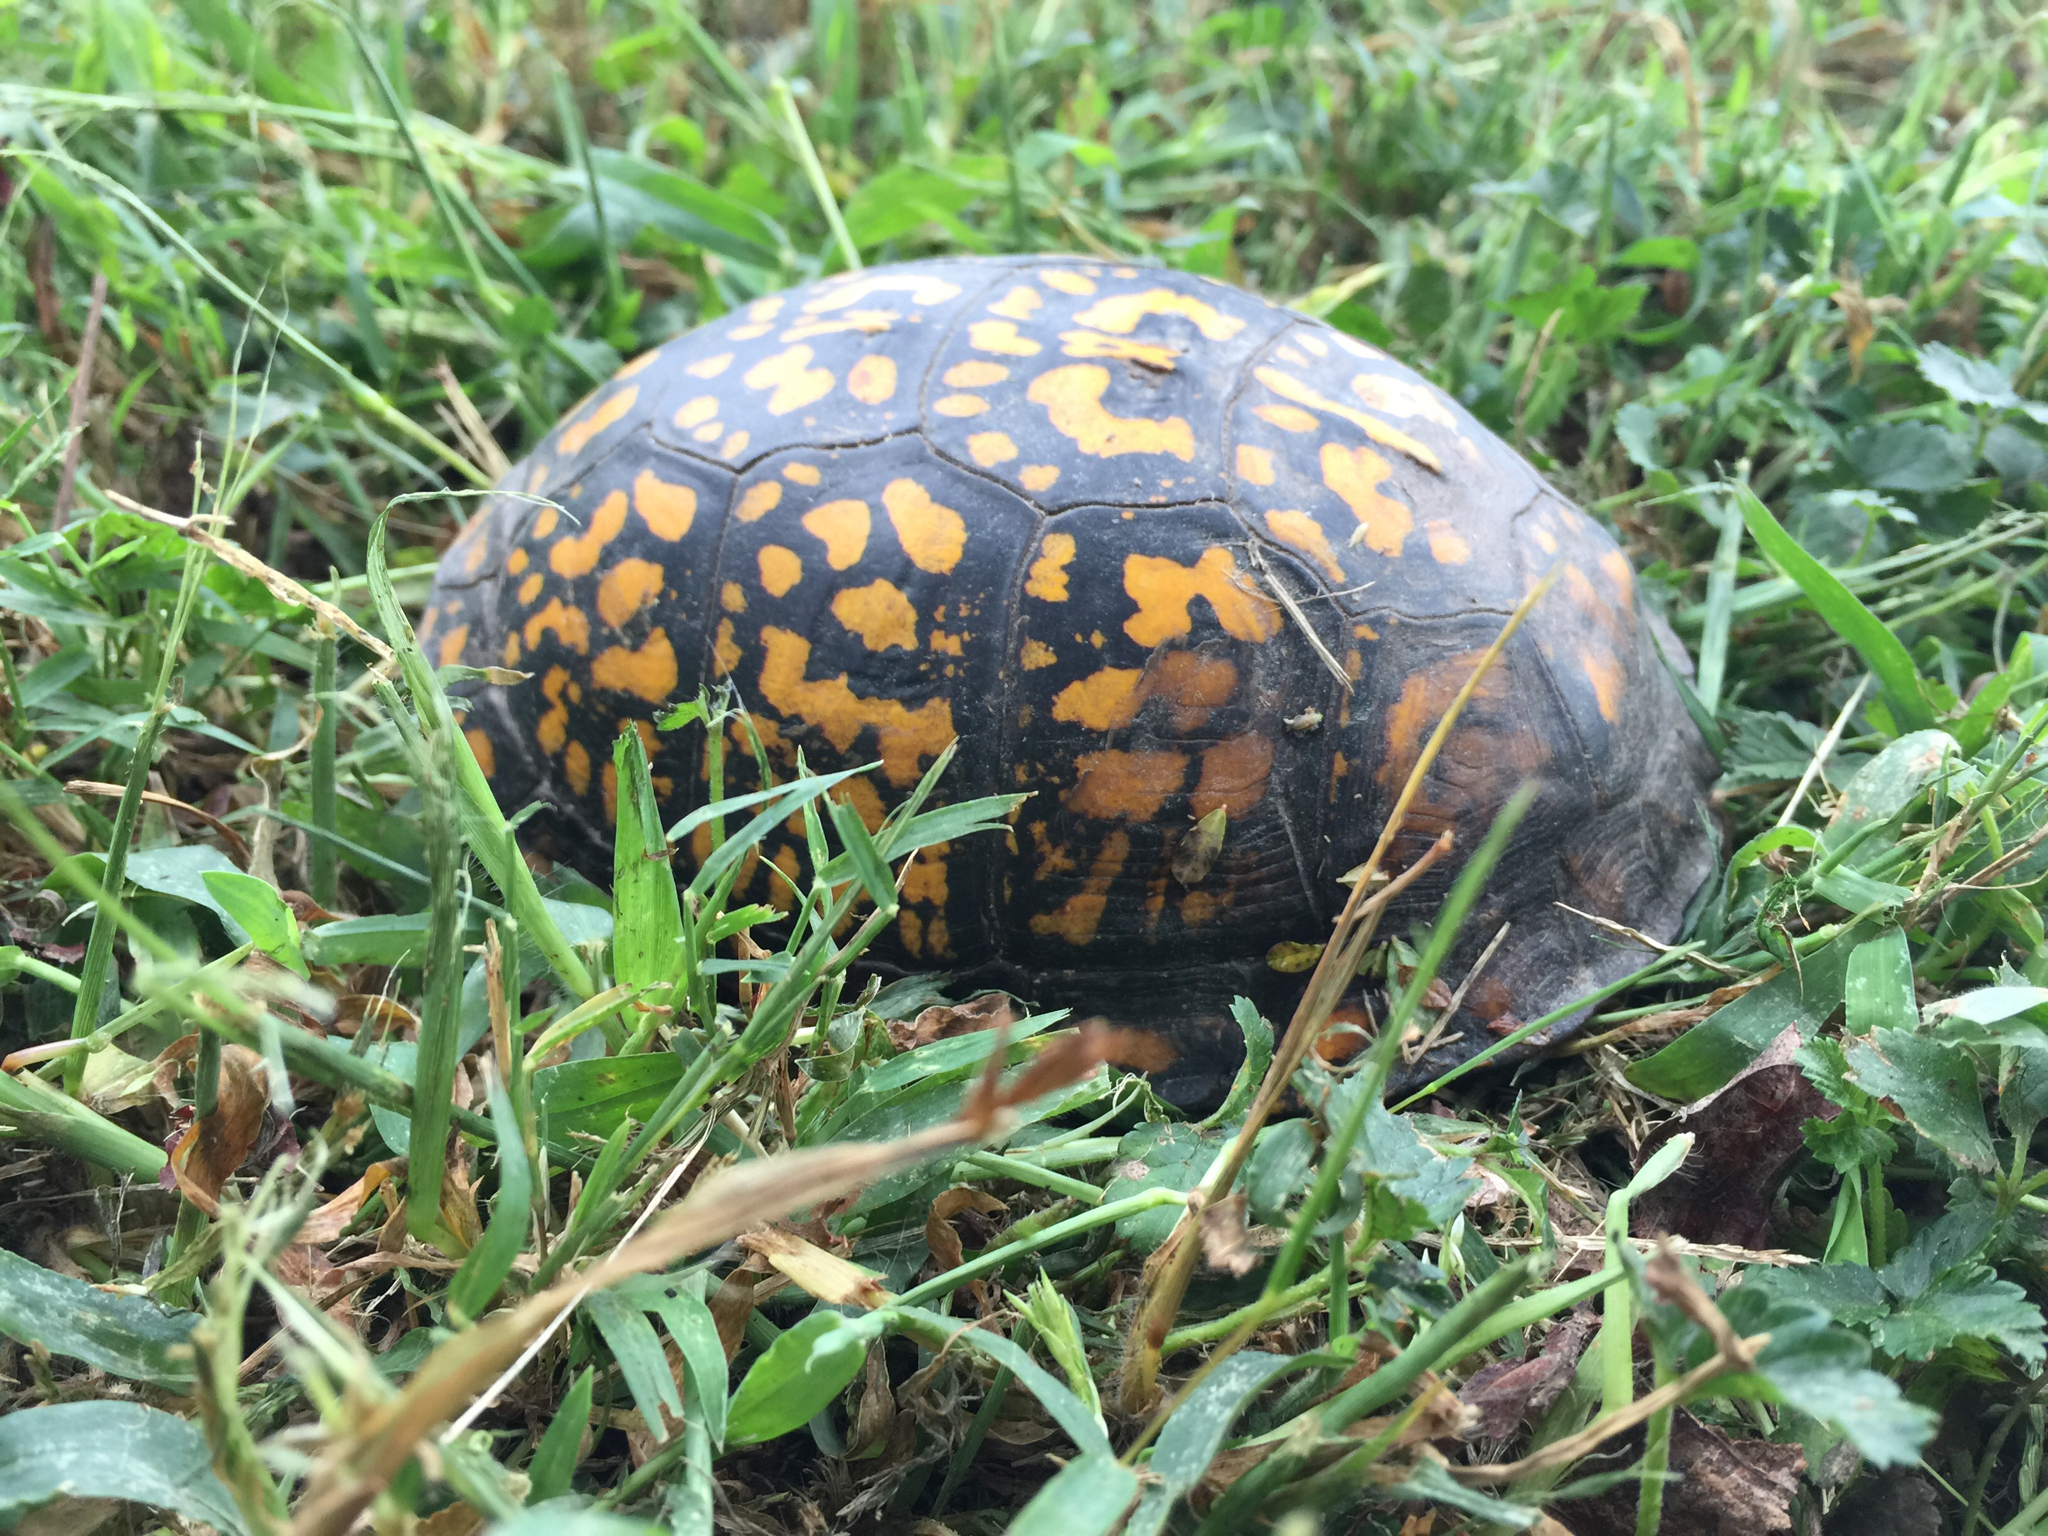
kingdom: Animalia
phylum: Chordata
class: Testudines
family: Emydidae
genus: Terrapene
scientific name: Terrapene carolina
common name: Common box turtle
